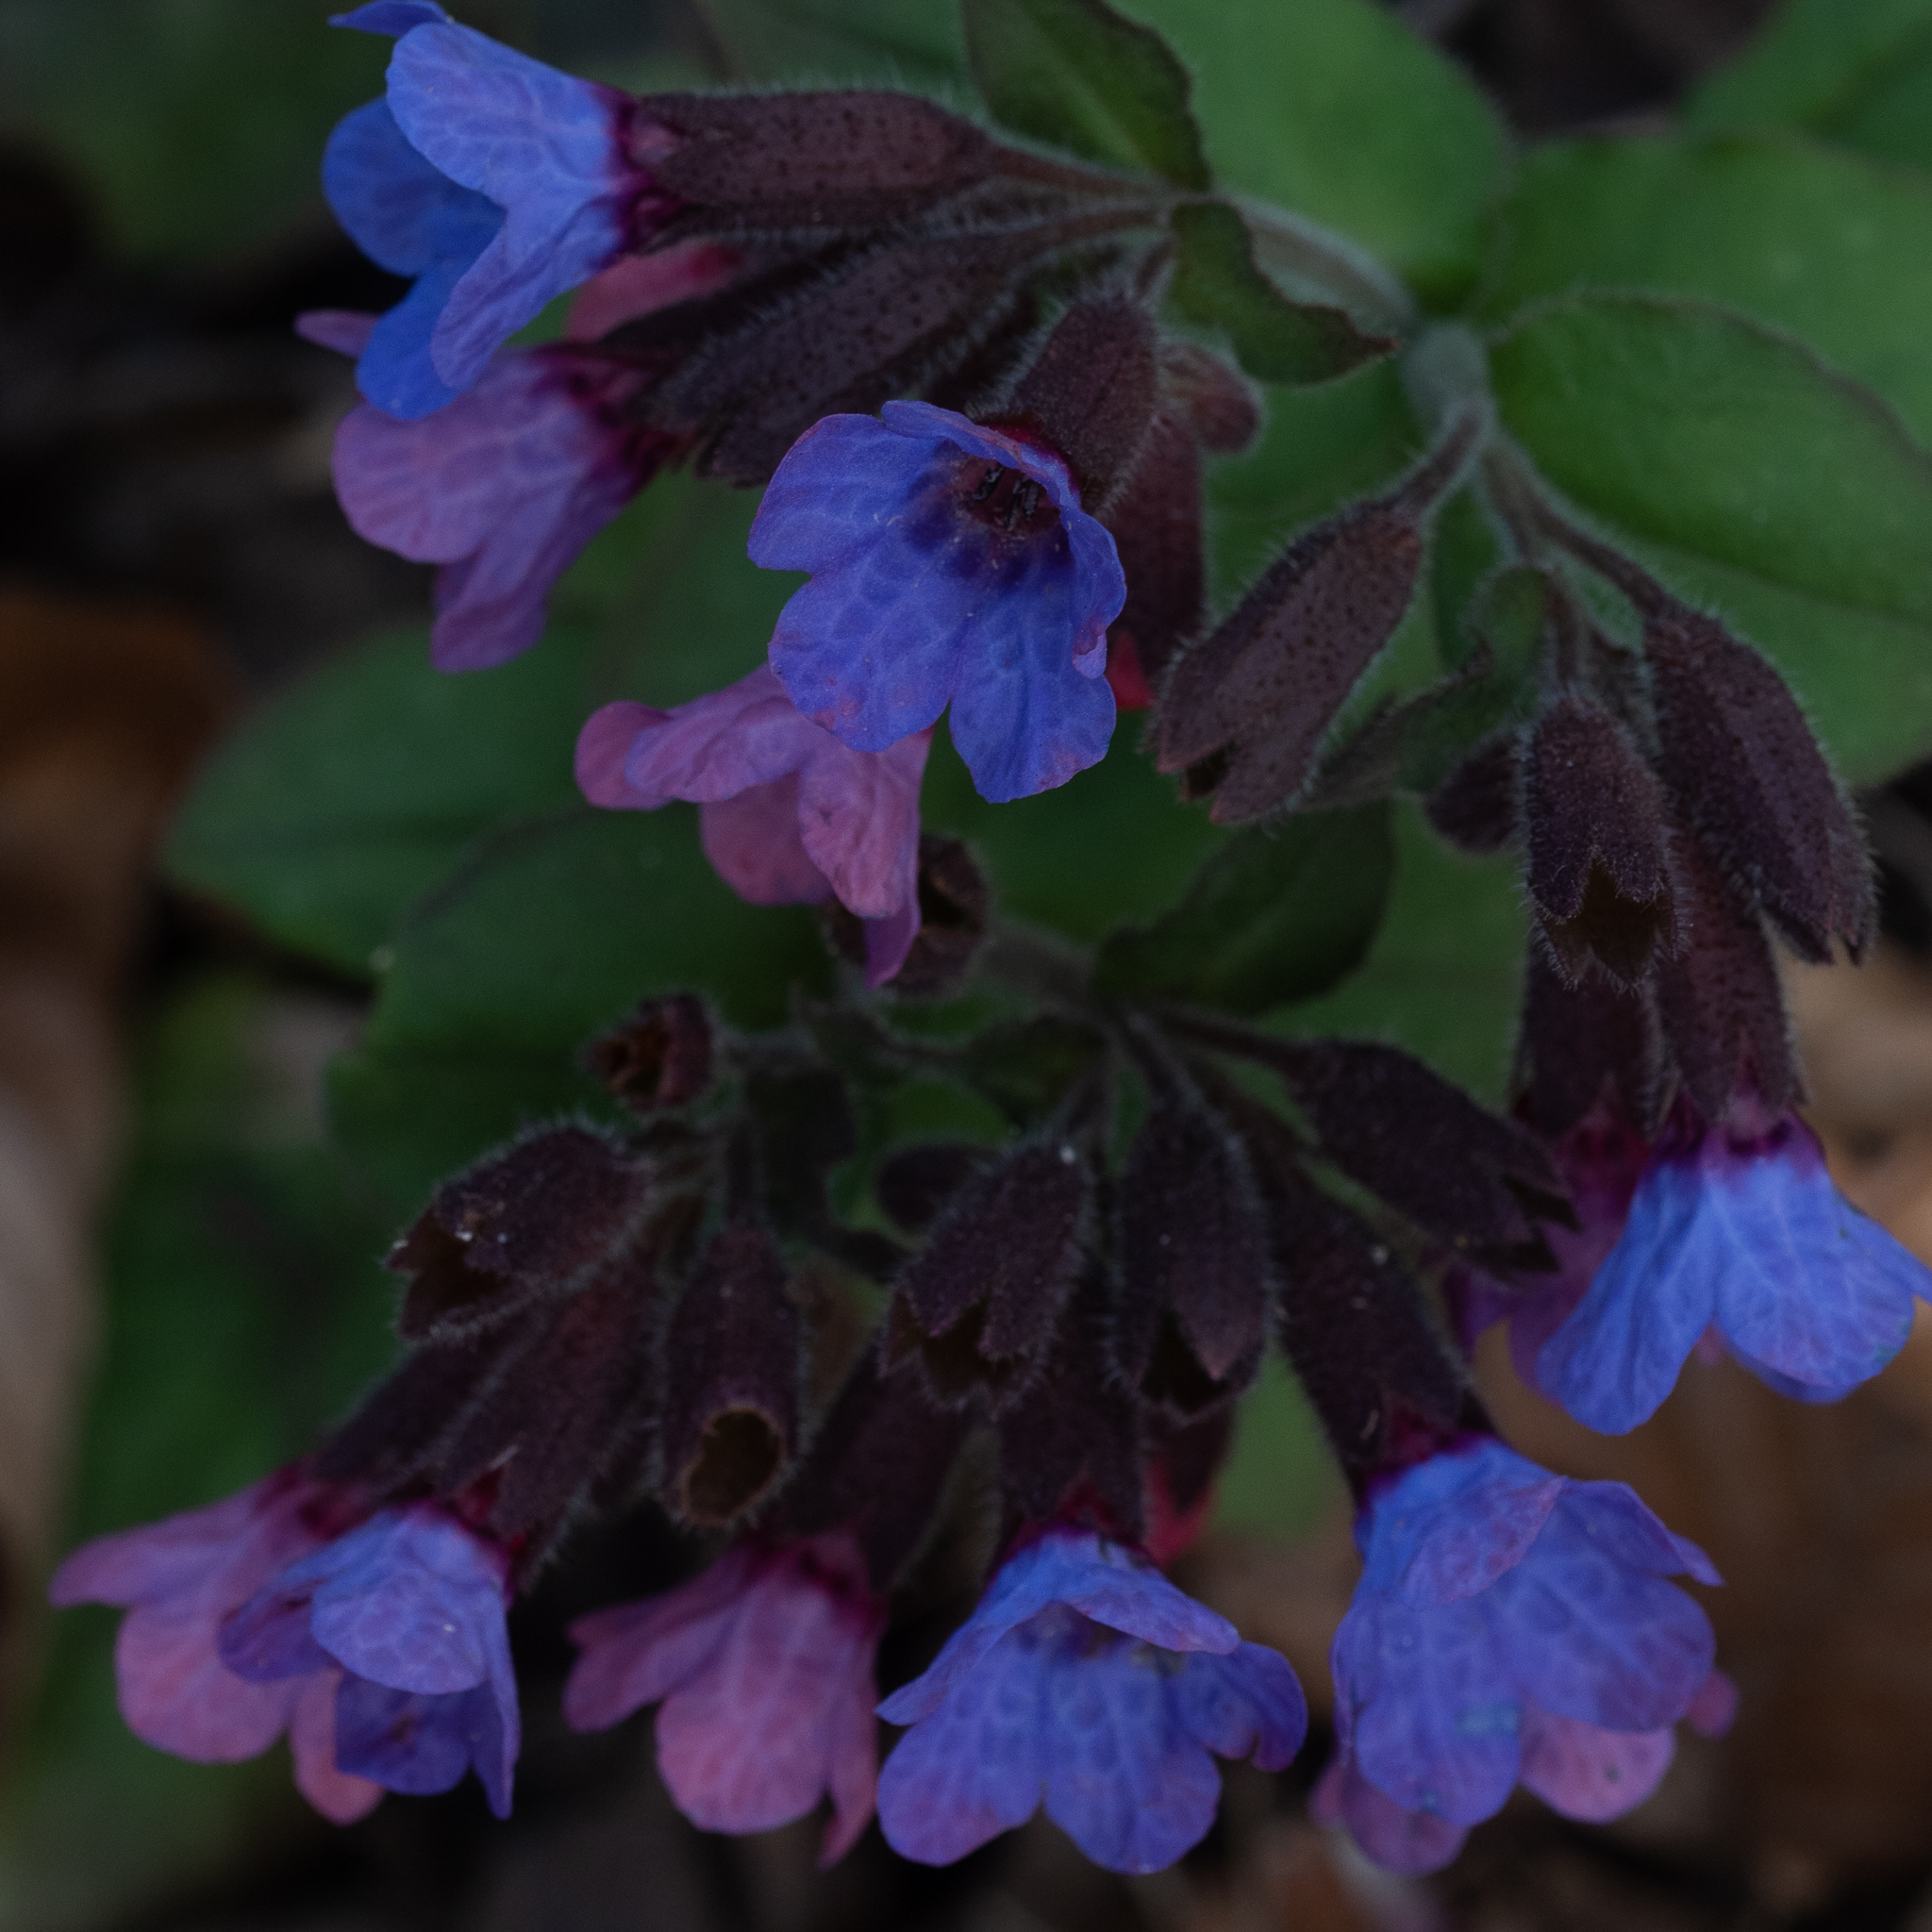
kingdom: Plantae
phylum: Tracheophyta
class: Magnoliopsida
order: Boraginales
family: Boraginaceae
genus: Pulmonaria
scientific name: Pulmonaria officinalis
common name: Lungwort
